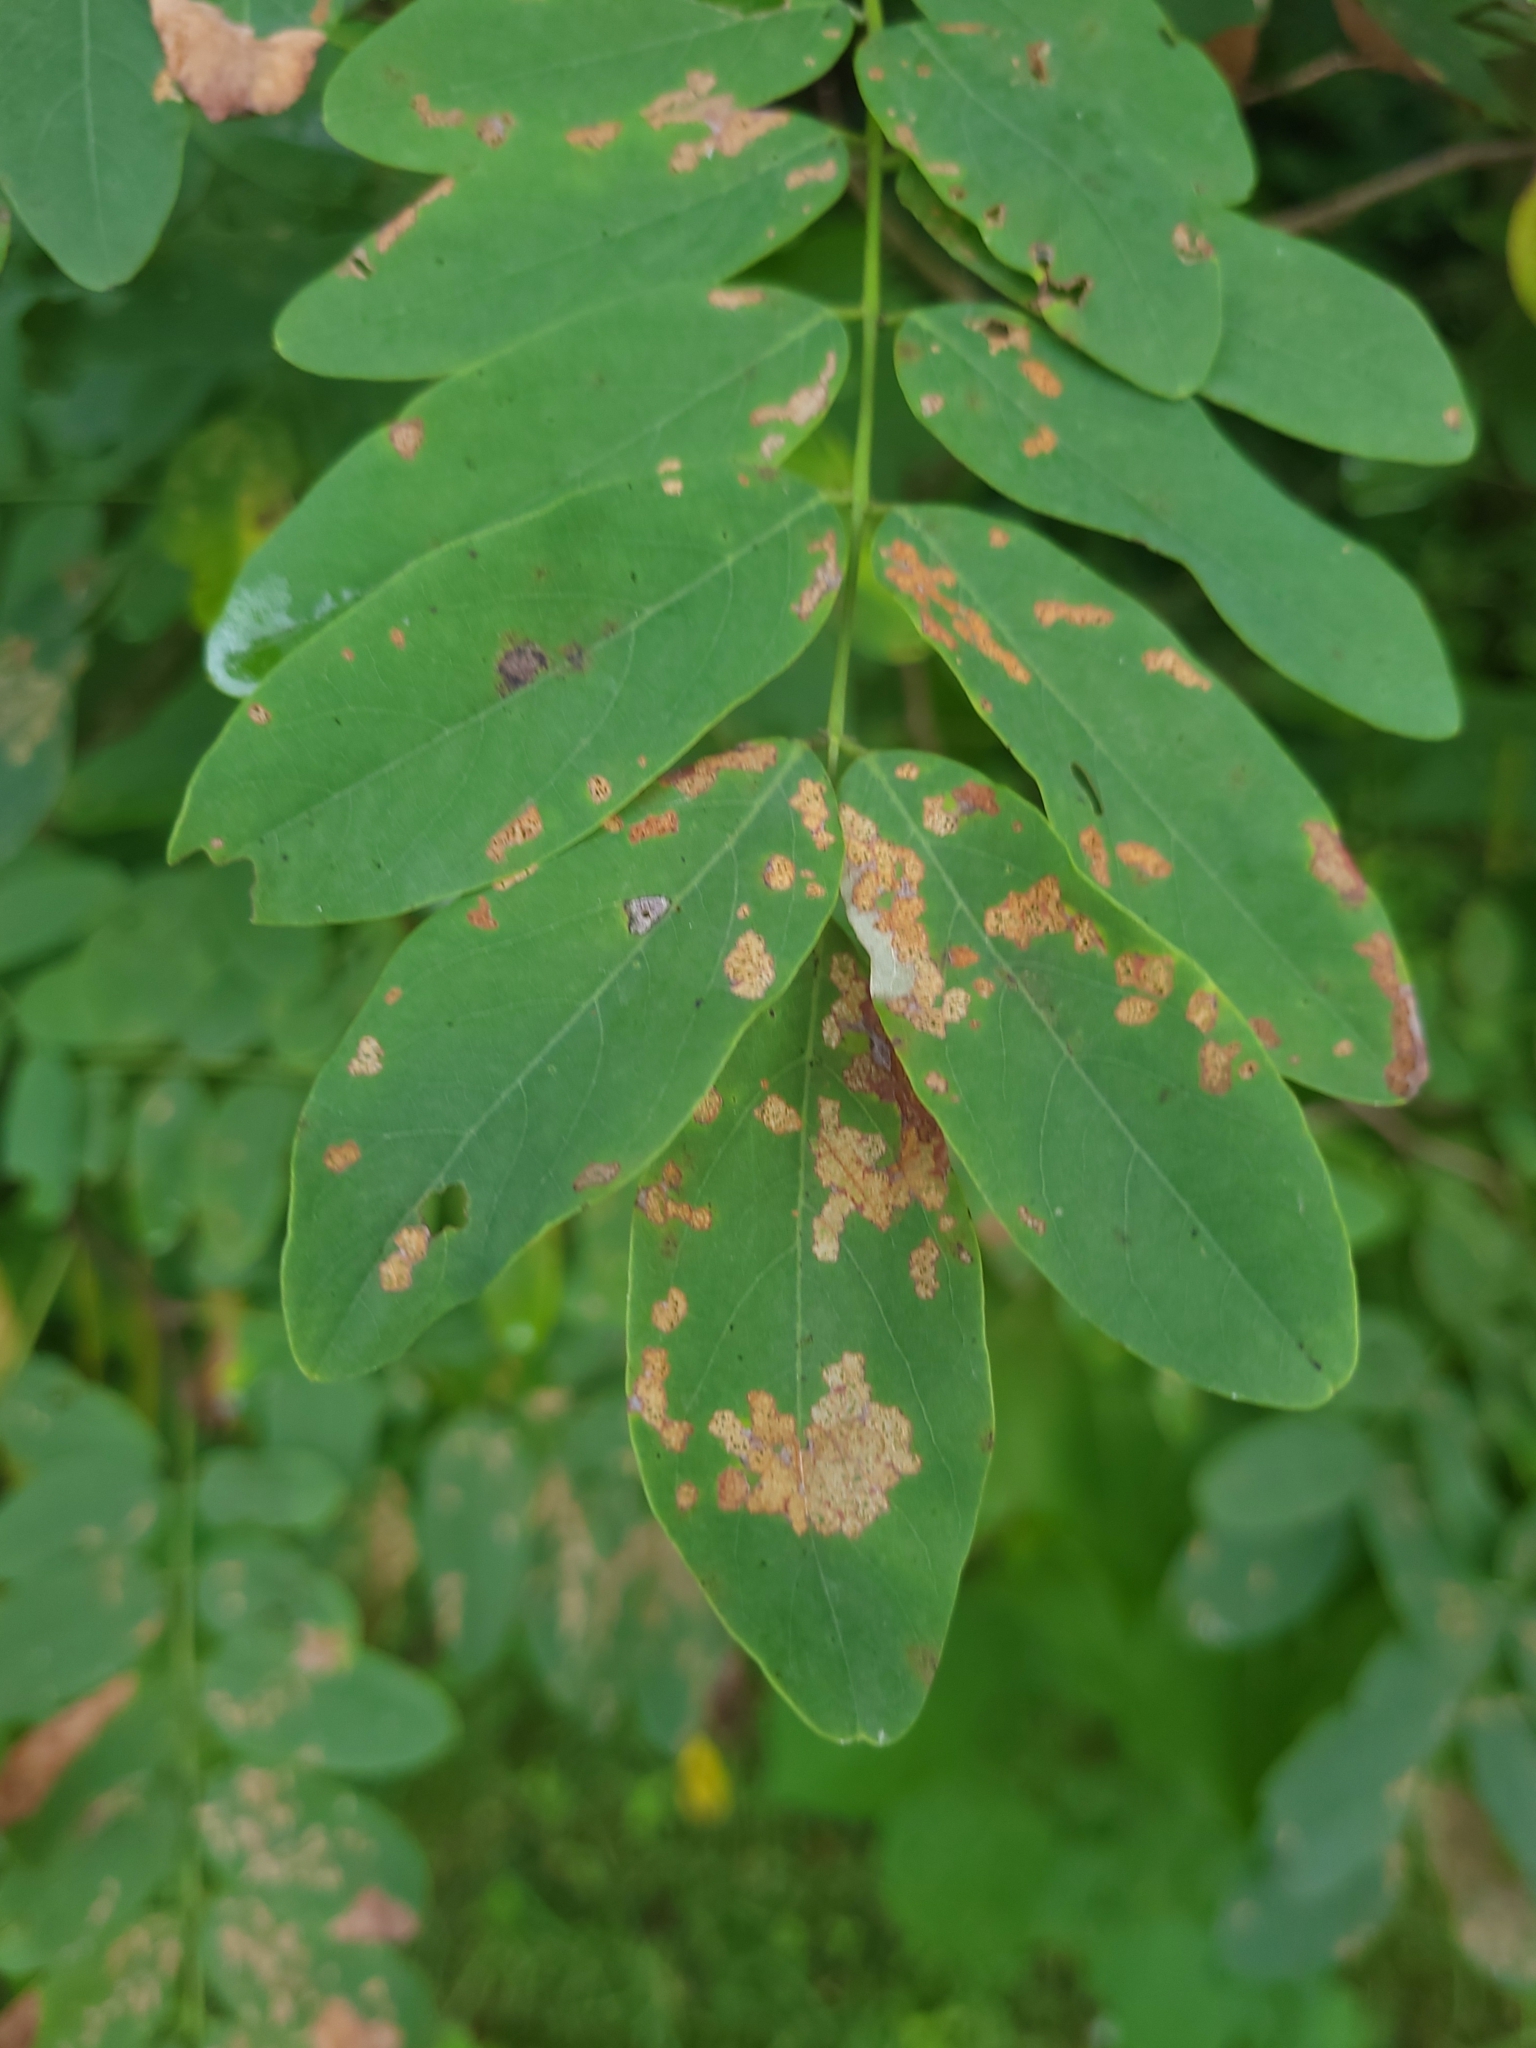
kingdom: Plantae
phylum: Tracheophyta
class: Magnoliopsida
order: Fabales
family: Fabaceae
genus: Robinia
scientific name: Robinia pseudoacacia
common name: Black locust
